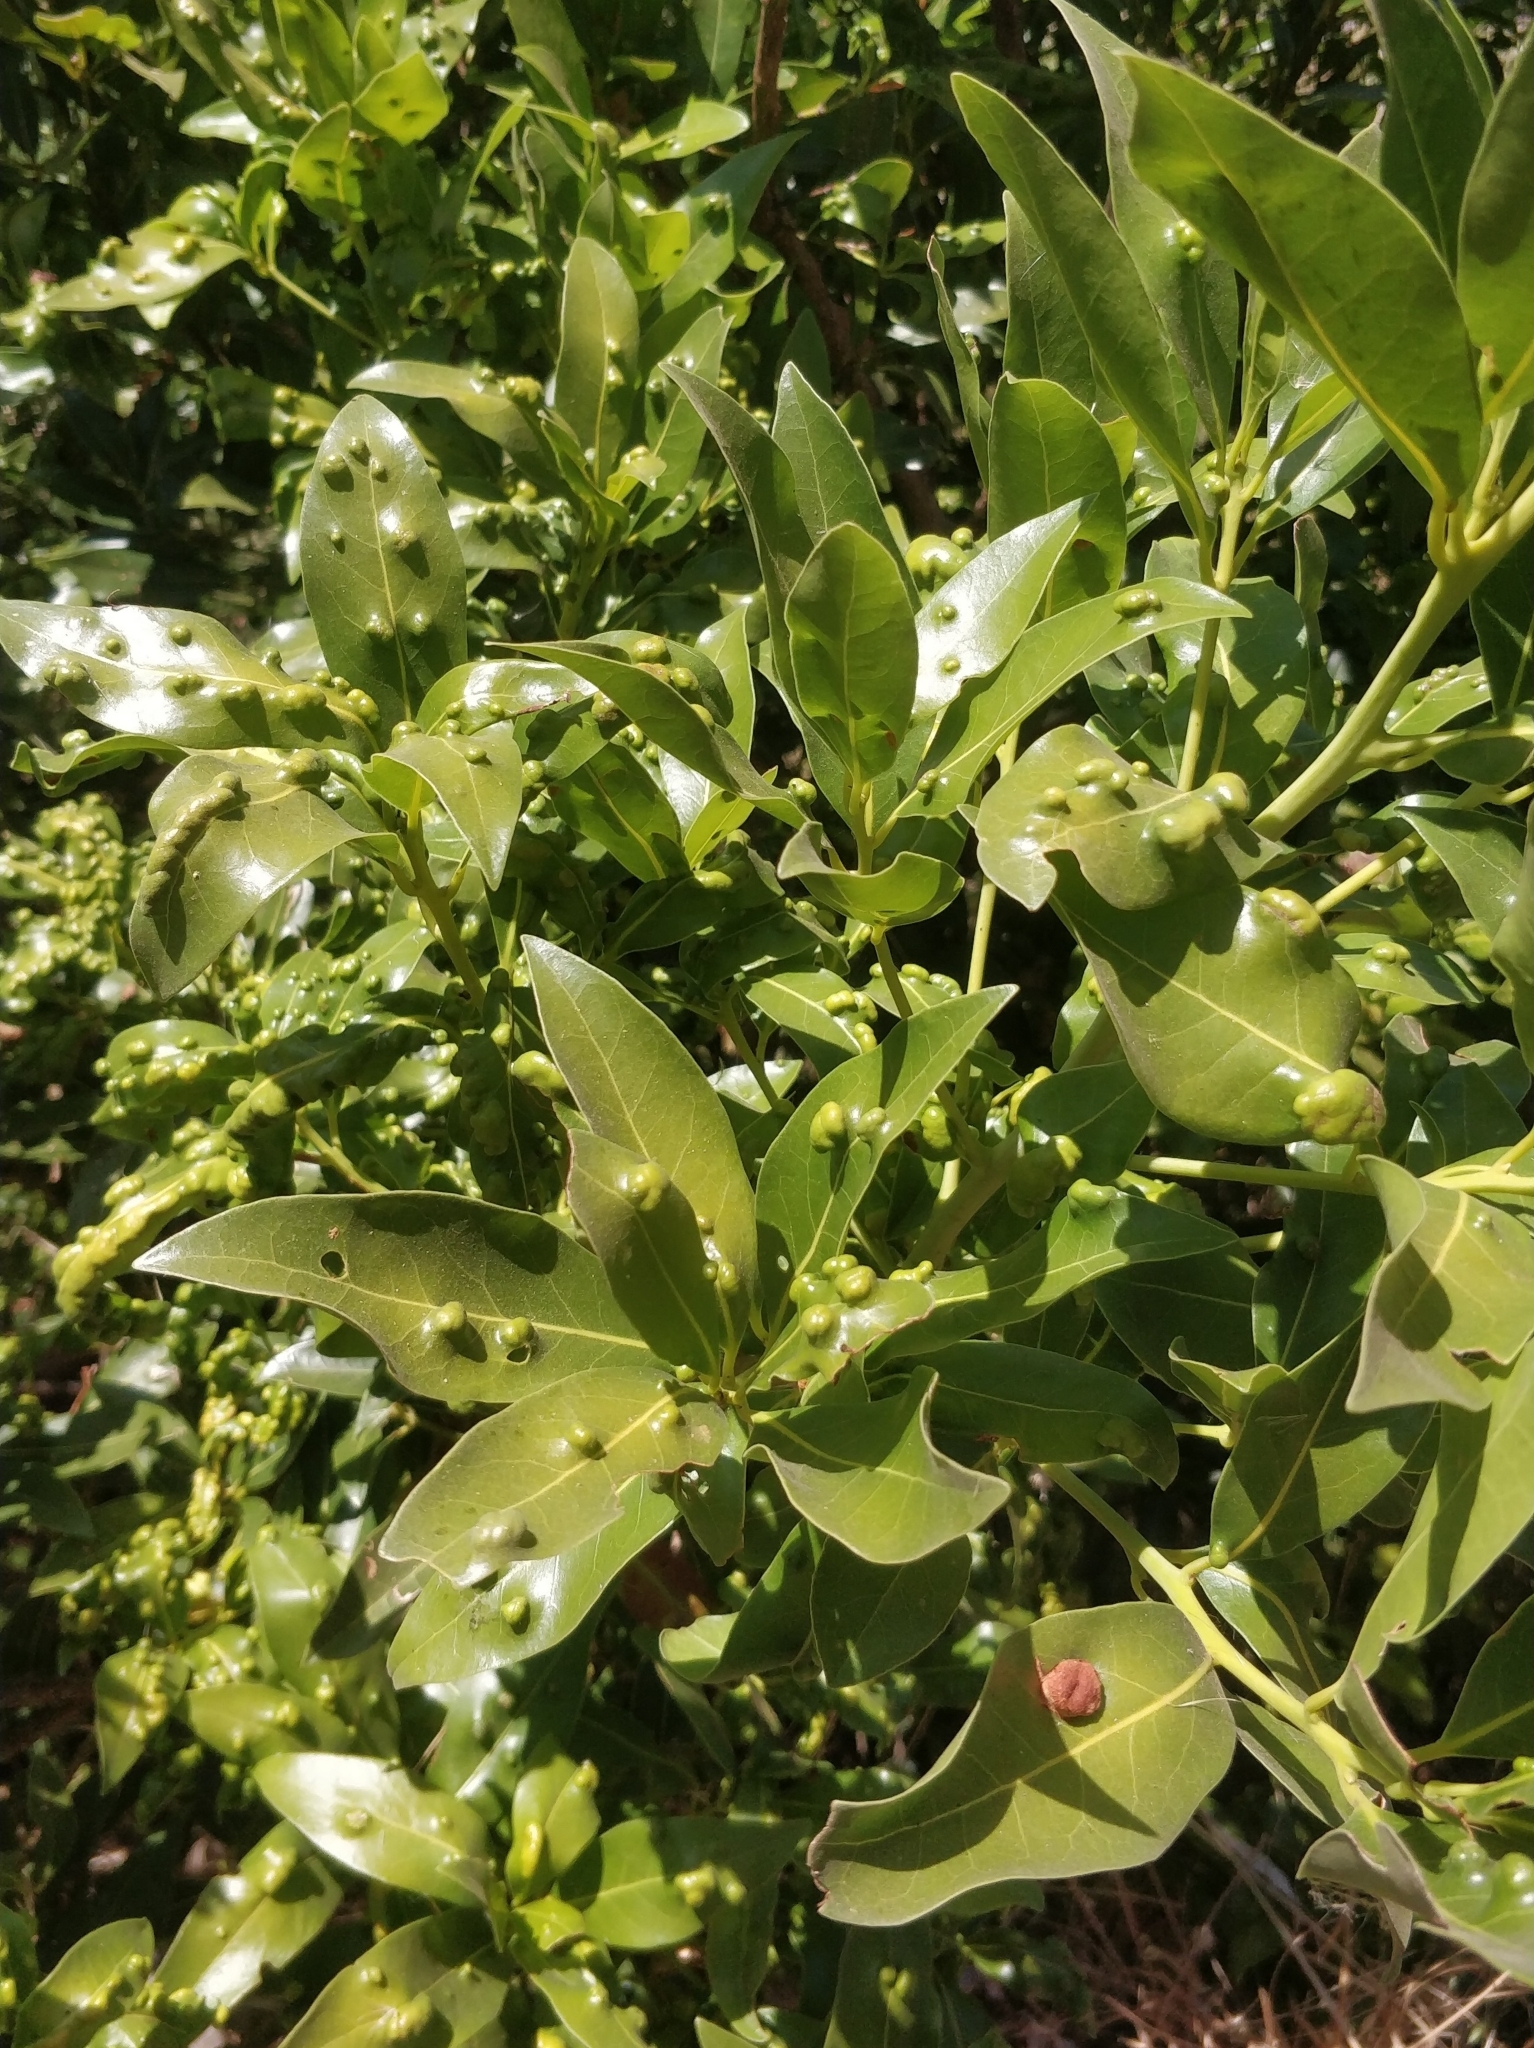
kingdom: Plantae
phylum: Tracheophyta
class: Magnoliopsida
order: Laurales
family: Lauraceae
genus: Apollonias
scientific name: Apollonias barbujana
